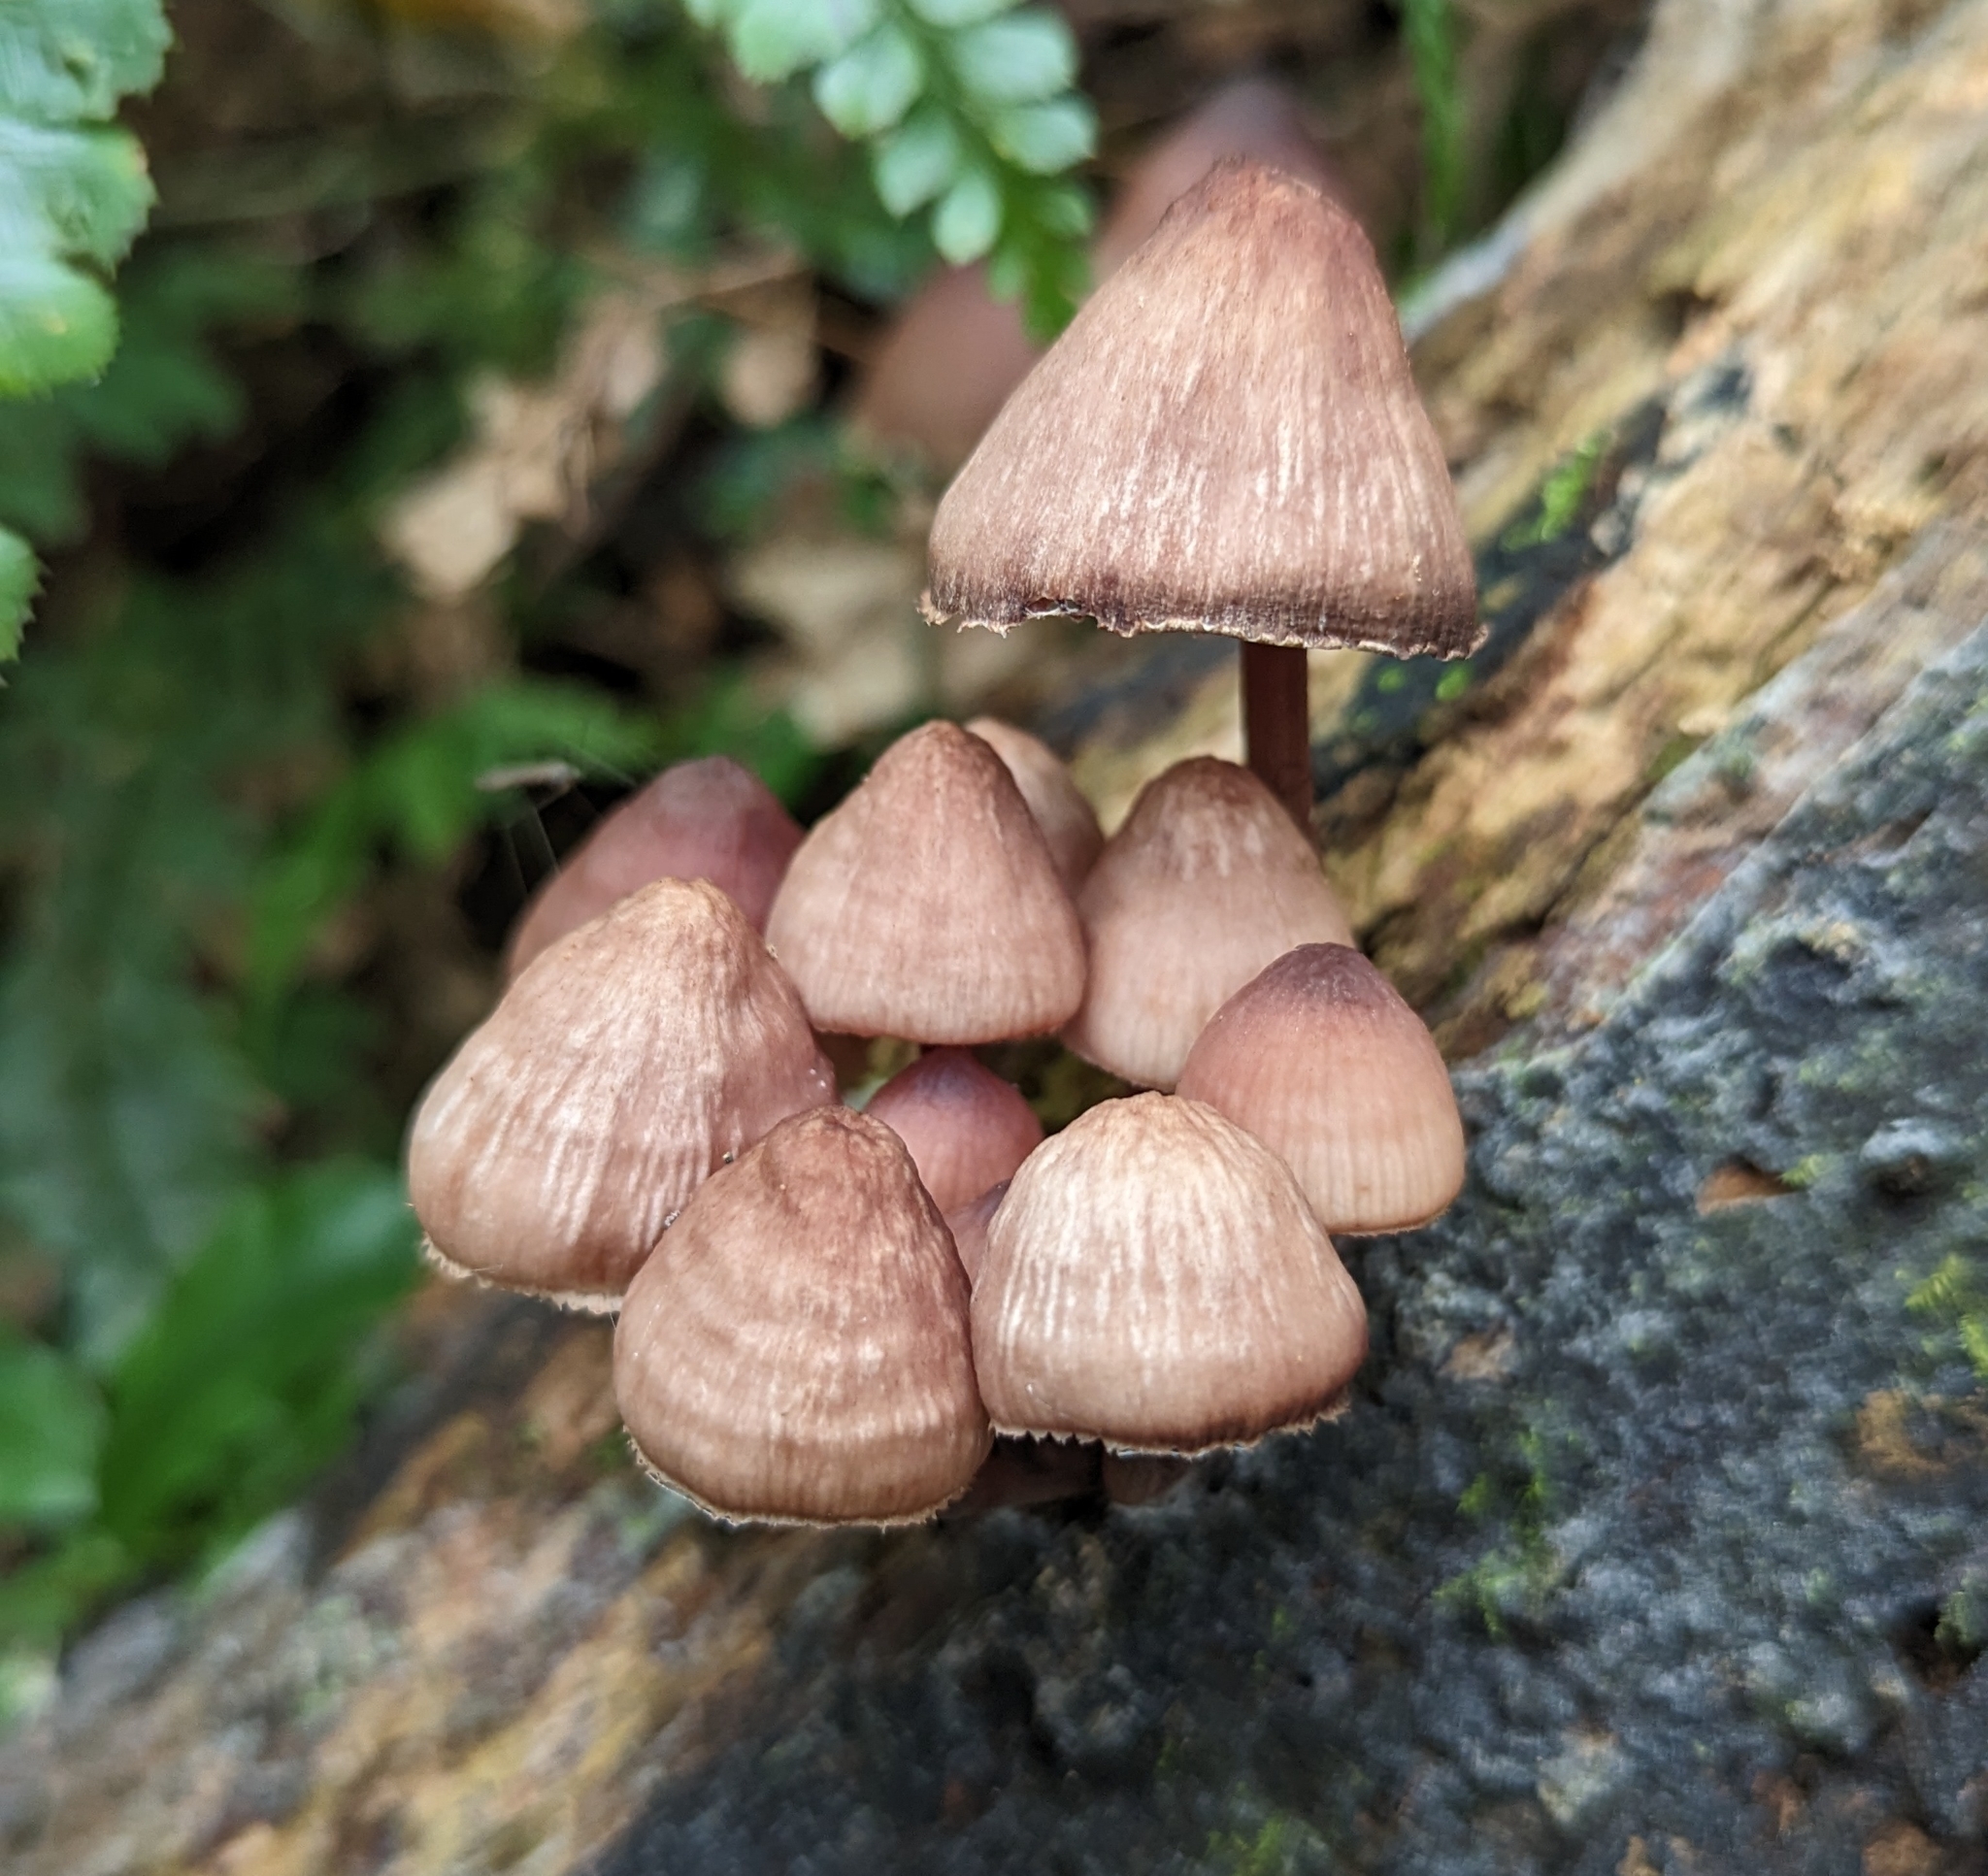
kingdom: Fungi
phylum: Basidiomycota
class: Agaricomycetes
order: Agaricales
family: Mycenaceae
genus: Mycena
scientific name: Mycena haematopus
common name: Burgundydrop bonnet
